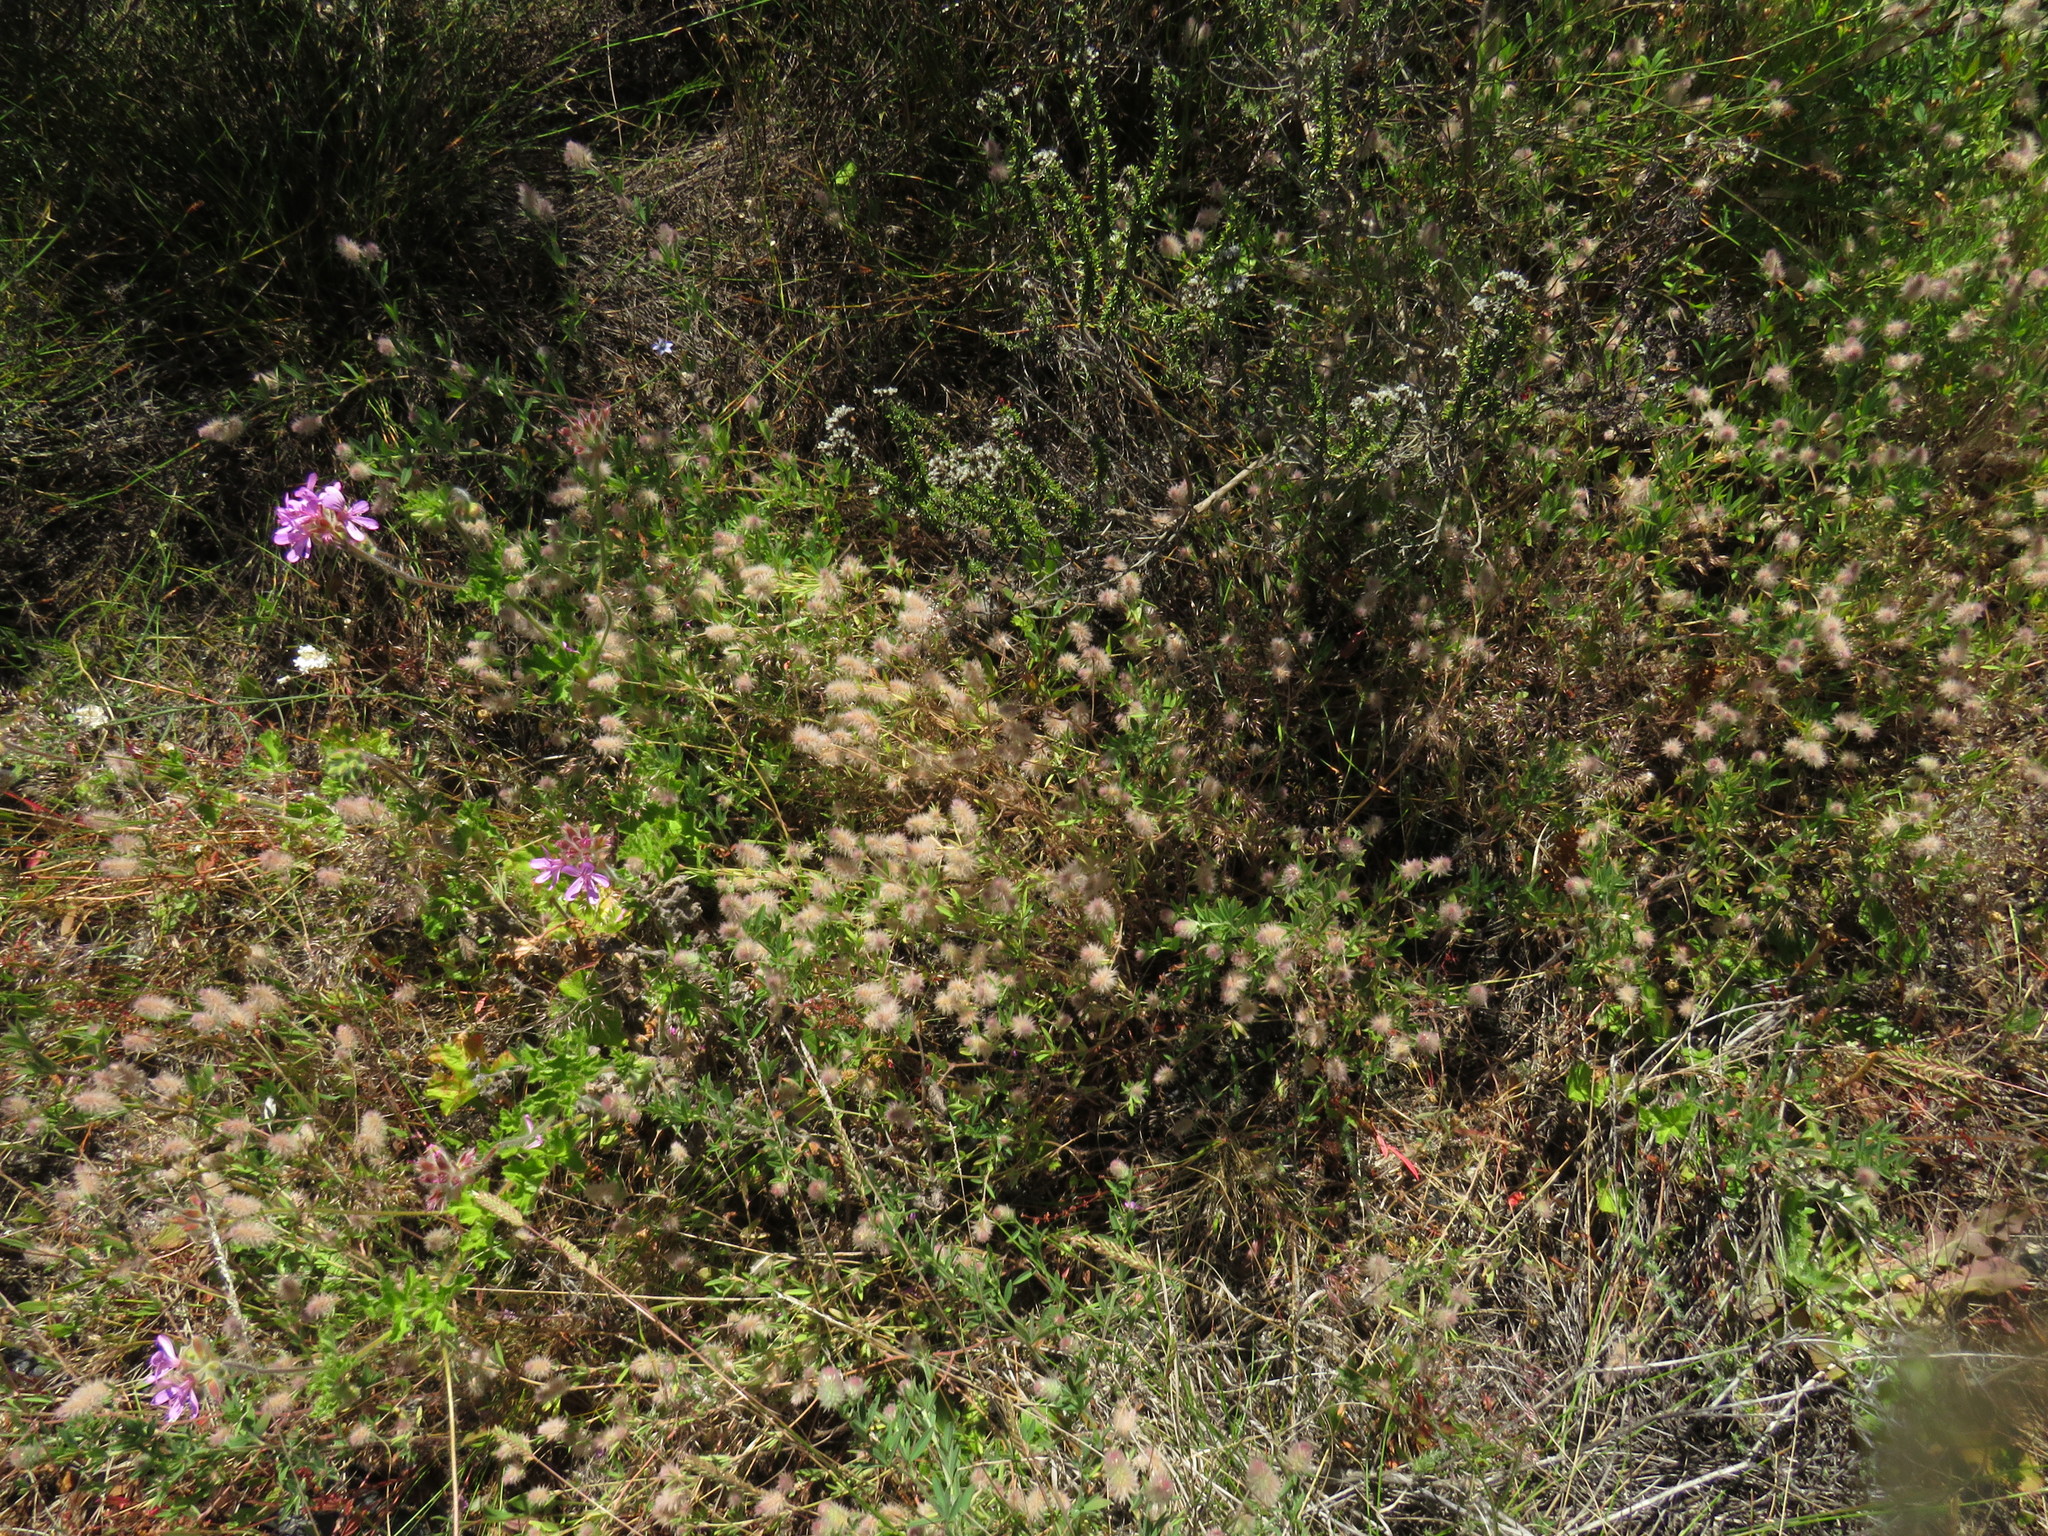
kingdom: Plantae
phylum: Tracheophyta
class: Magnoliopsida
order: Fabales
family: Fabaceae
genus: Trifolium
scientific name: Trifolium arvense
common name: Hare's-foot clover
